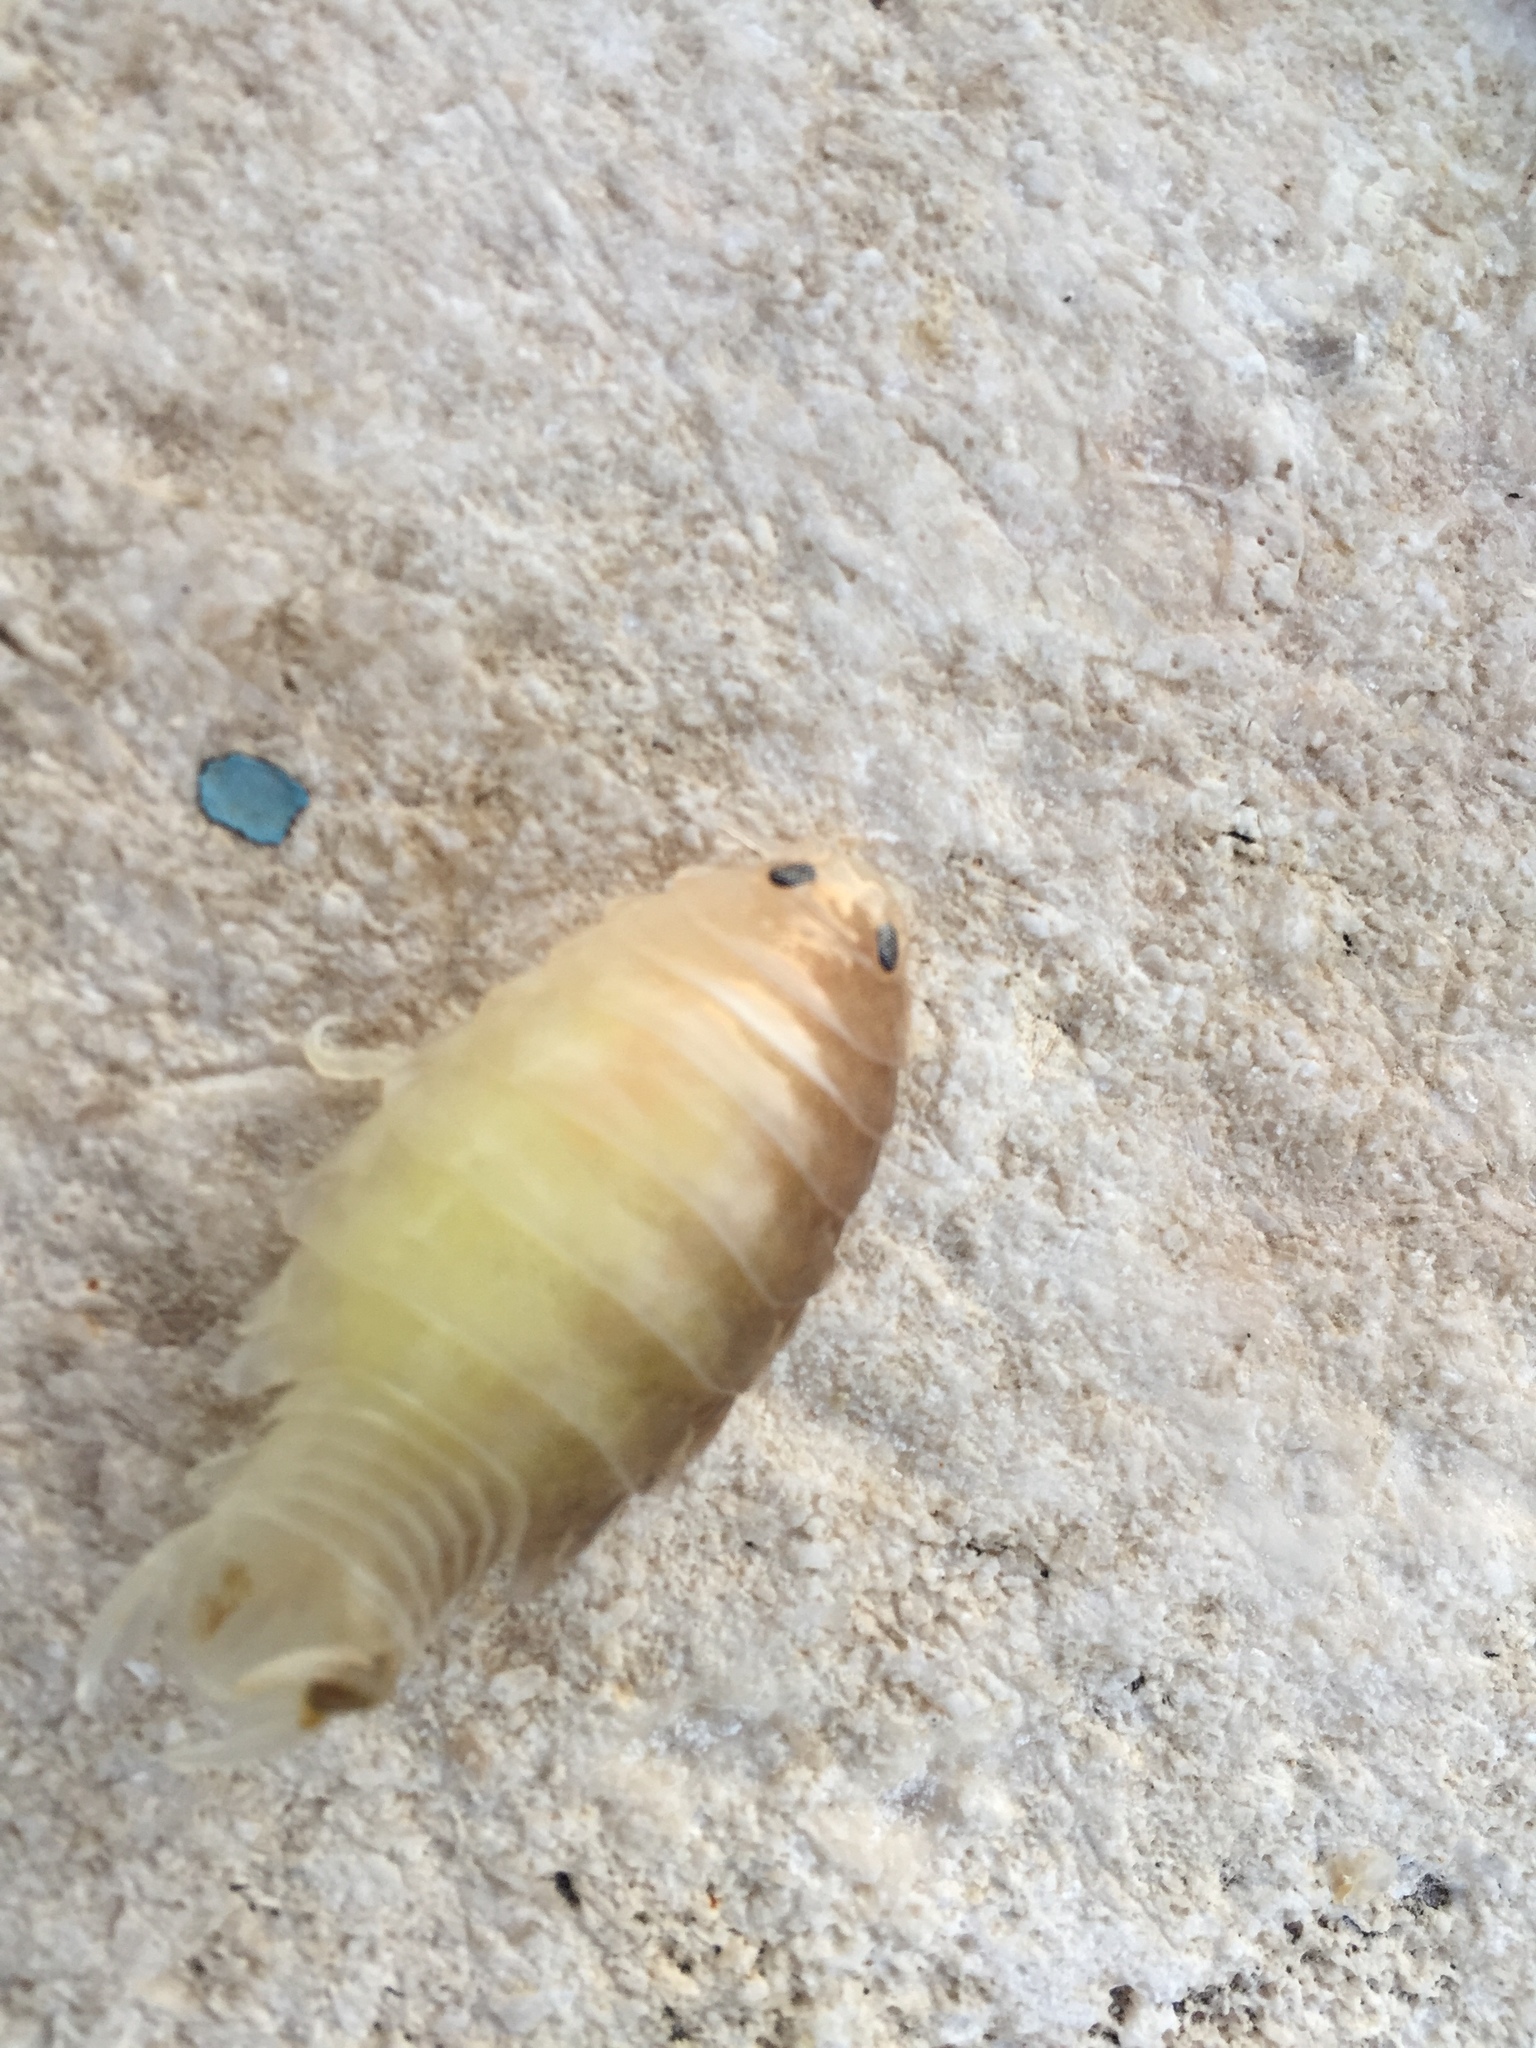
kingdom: Animalia
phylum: Arthropoda
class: Malacostraca
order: Isopoda
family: Cymothoidae
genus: Anilocra
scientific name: Anilocra physodes
